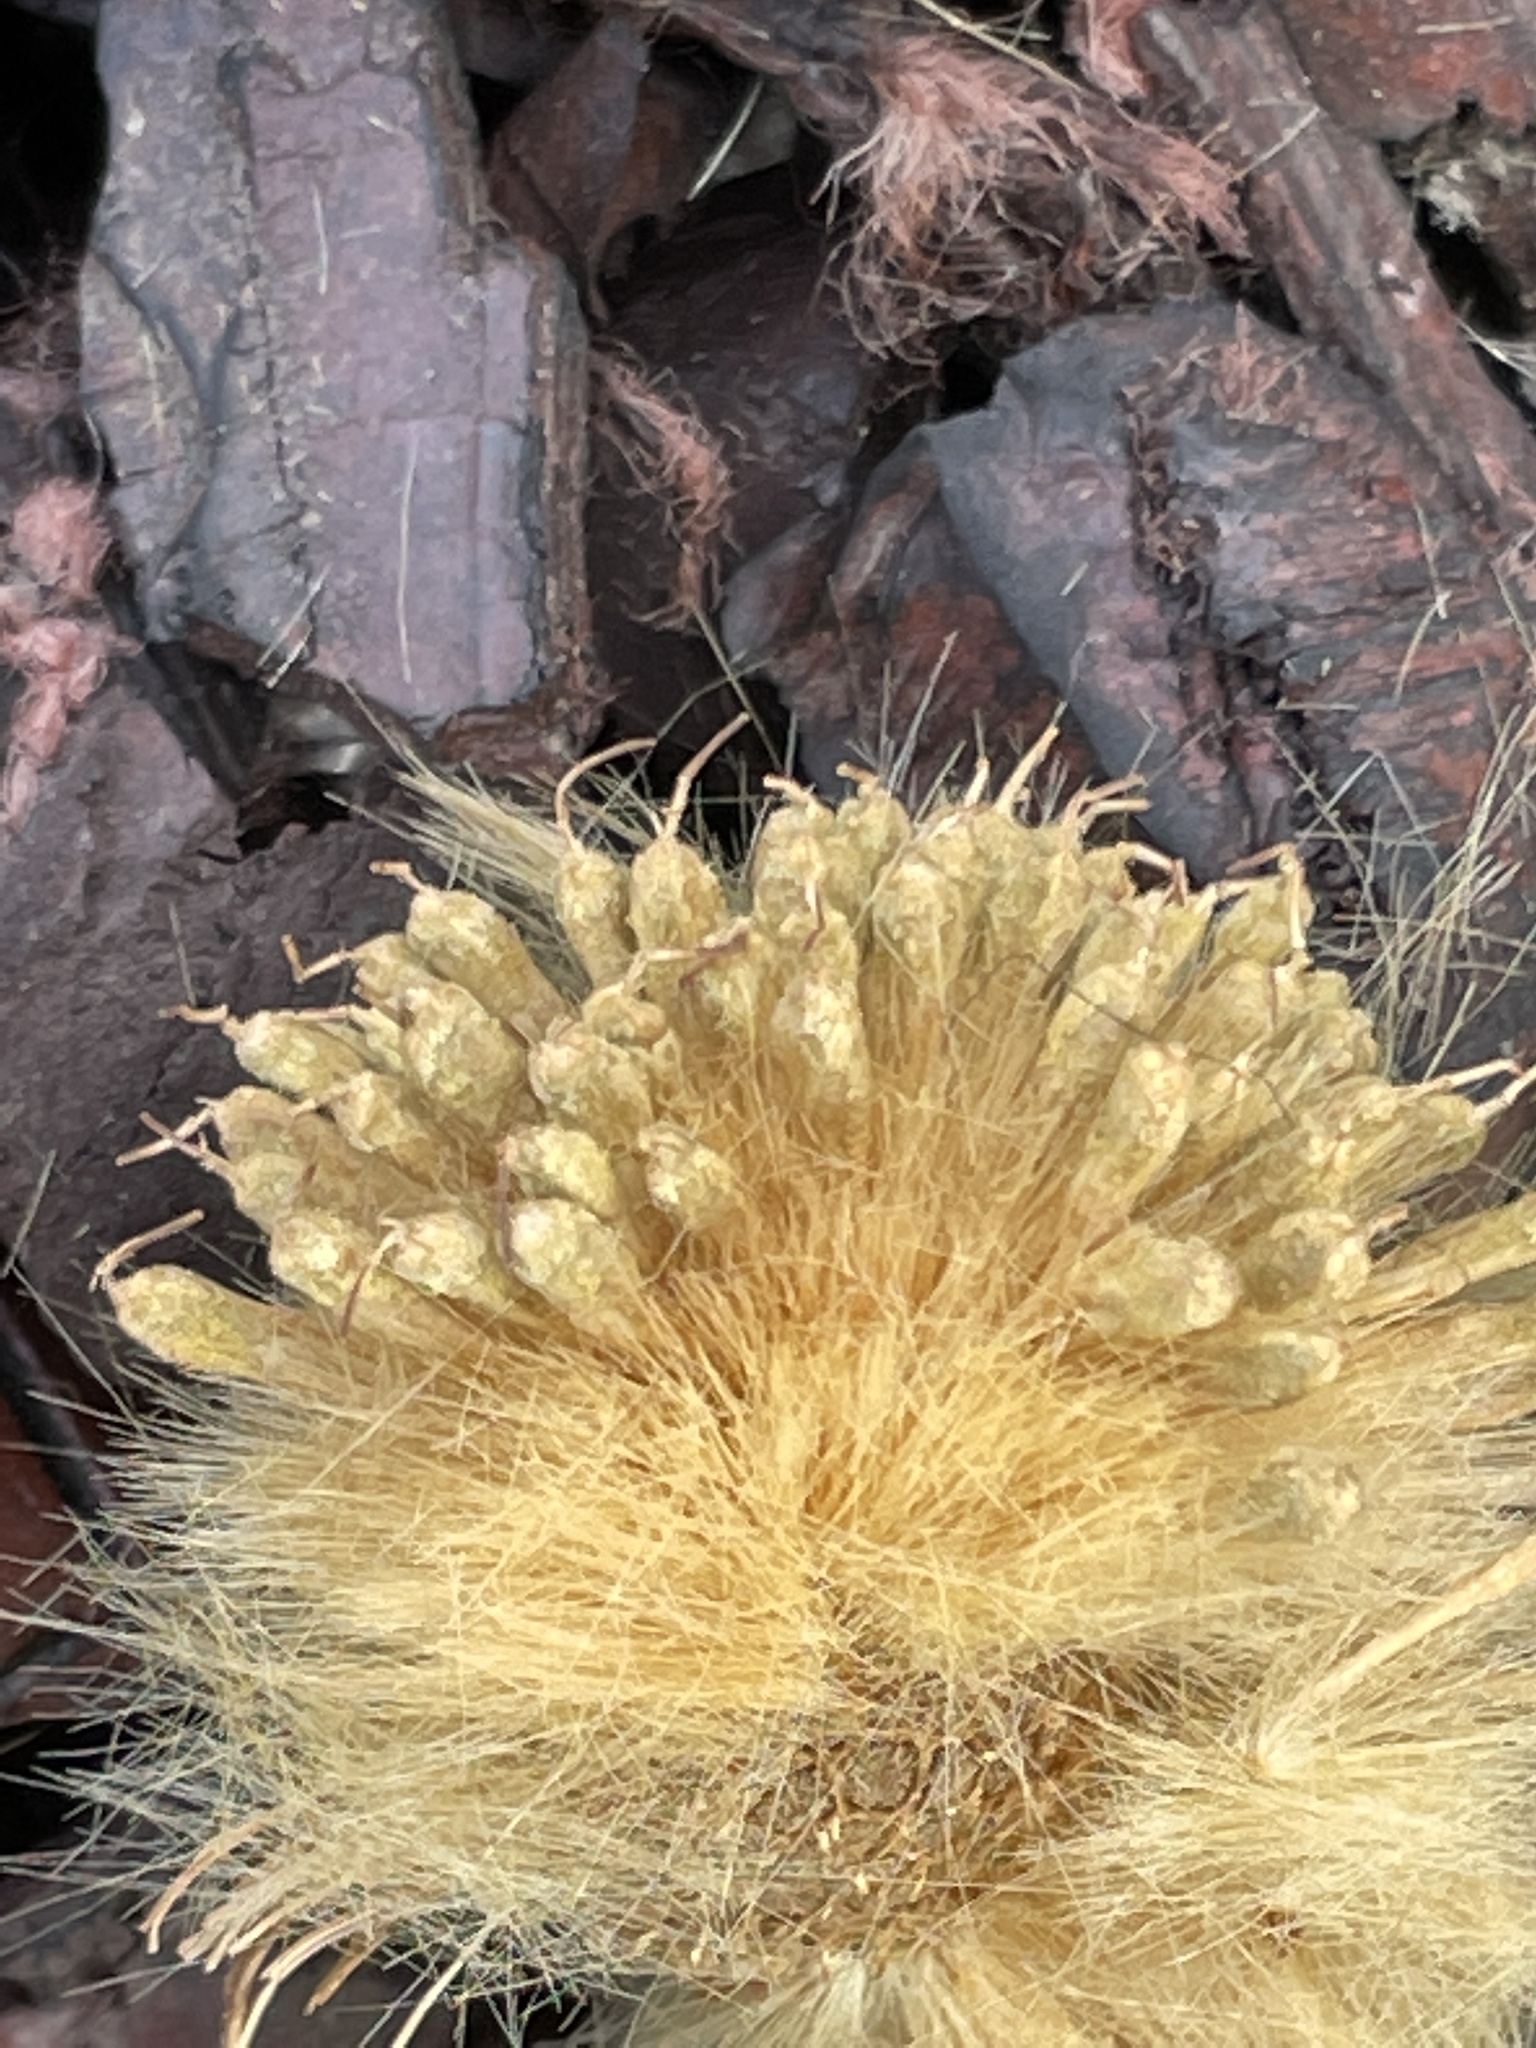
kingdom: Plantae
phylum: Tracheophyta
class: Magnoliopsida
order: Proteales
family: Platanaceae
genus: Platanus
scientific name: Platanus occidentalis
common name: American sycamore
